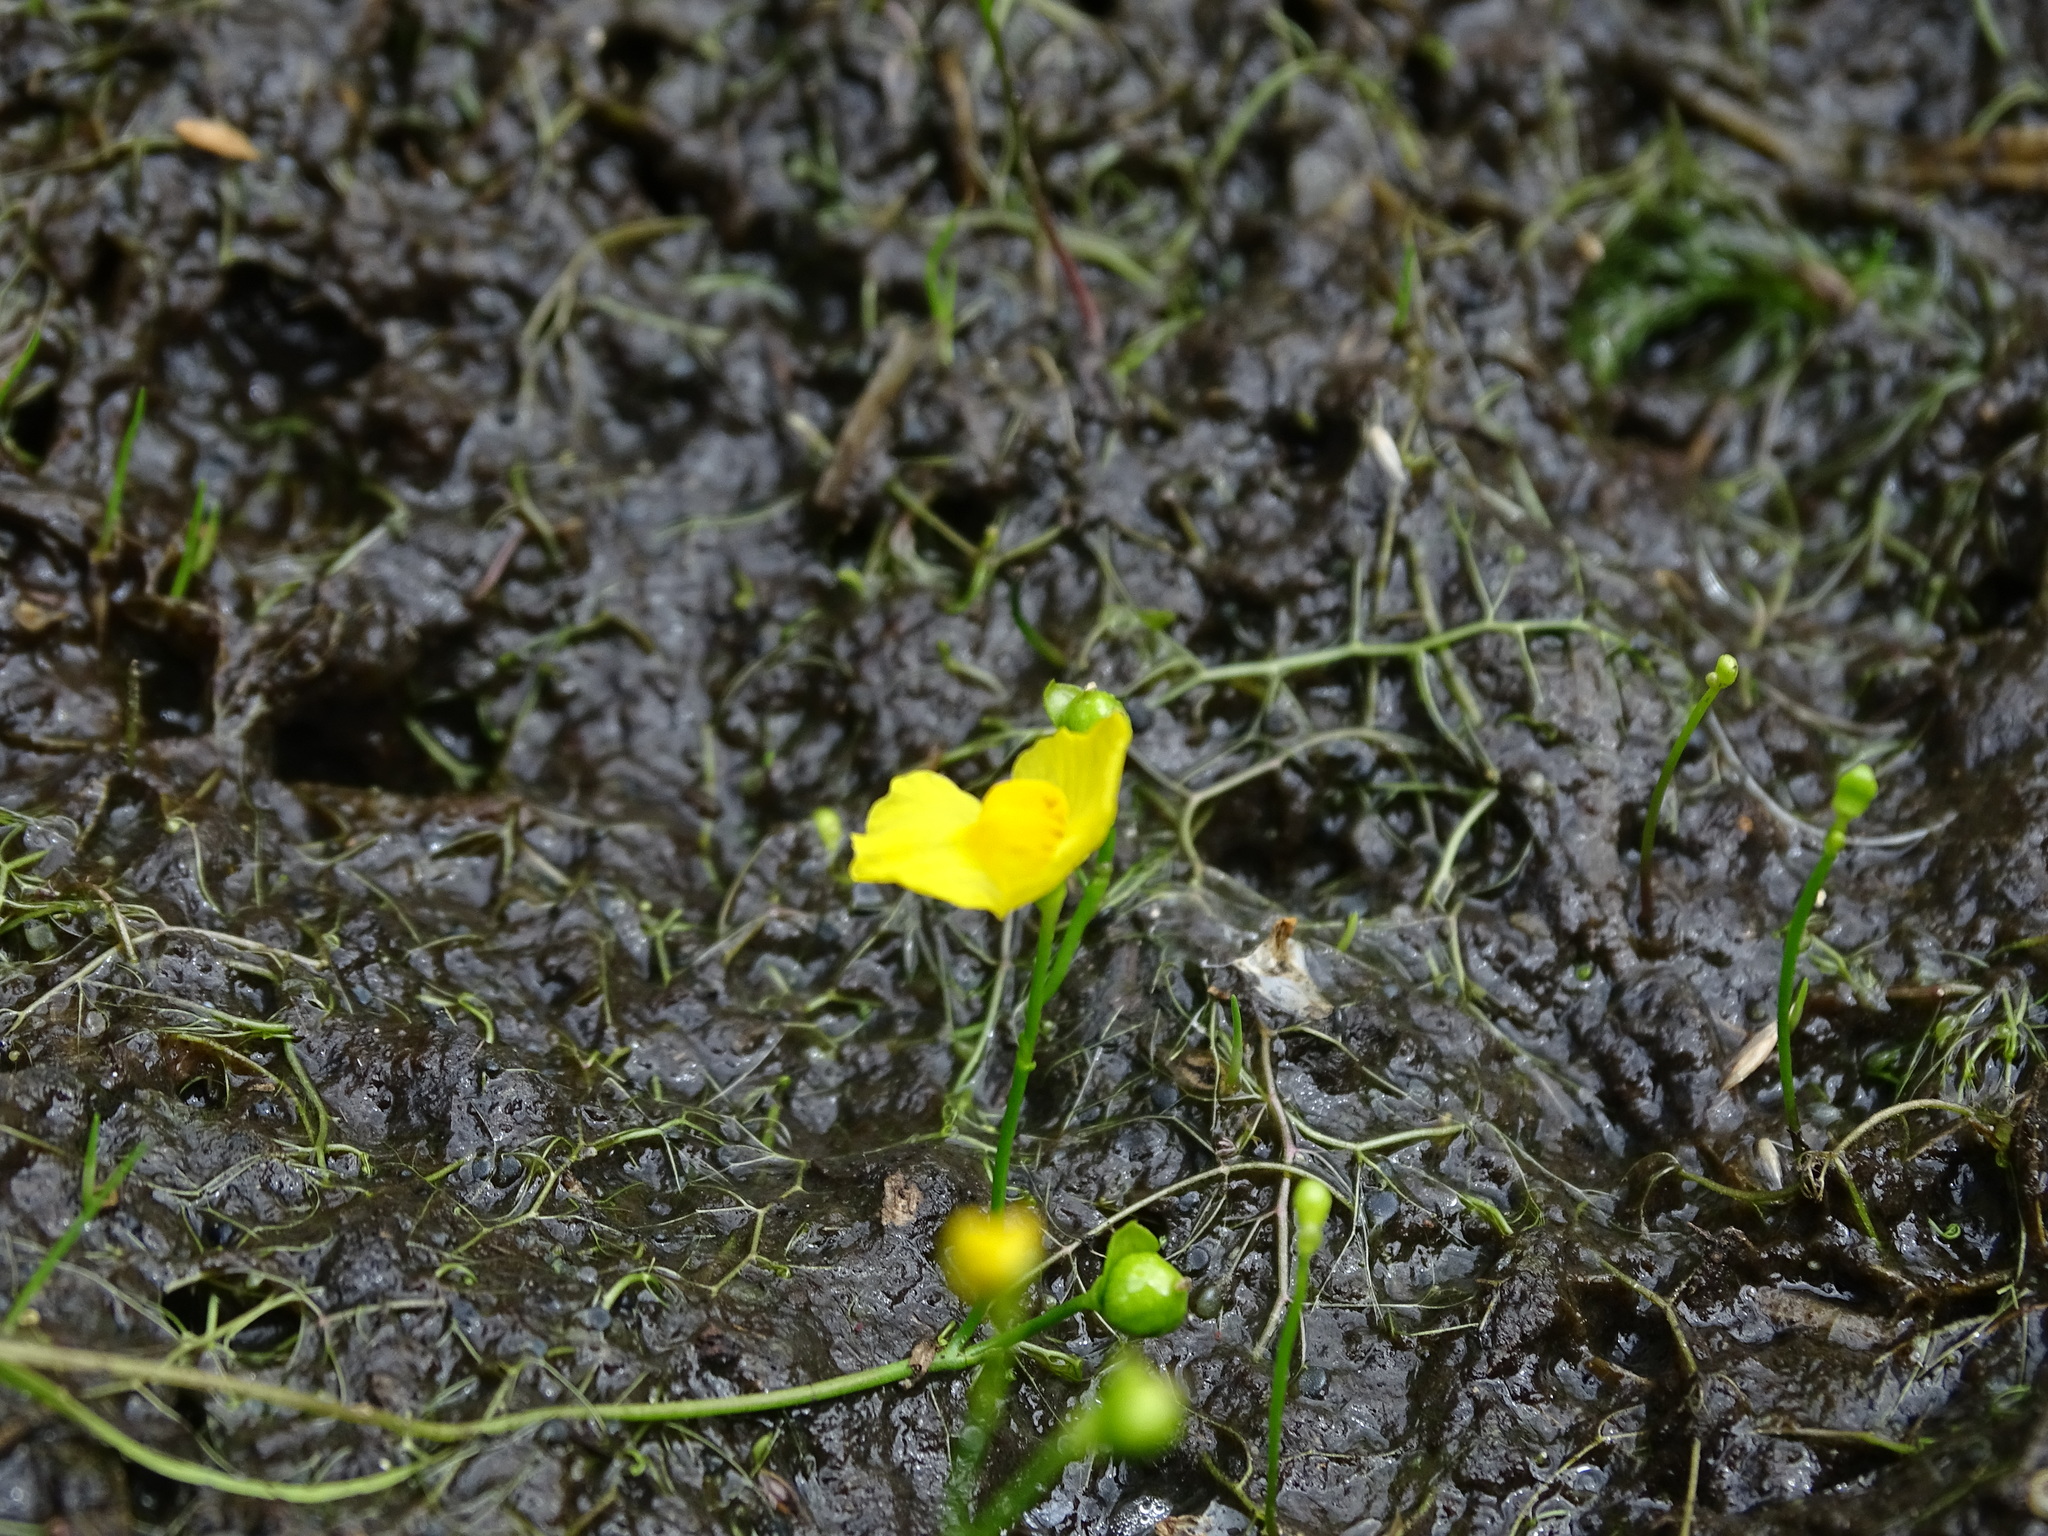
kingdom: Plantae
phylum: Tracheophyta
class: Magnoliopsida
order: Lamiales
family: Lentibulariaceae
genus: Utricularia
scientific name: Utricularia gibba
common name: Humped bladderwort
